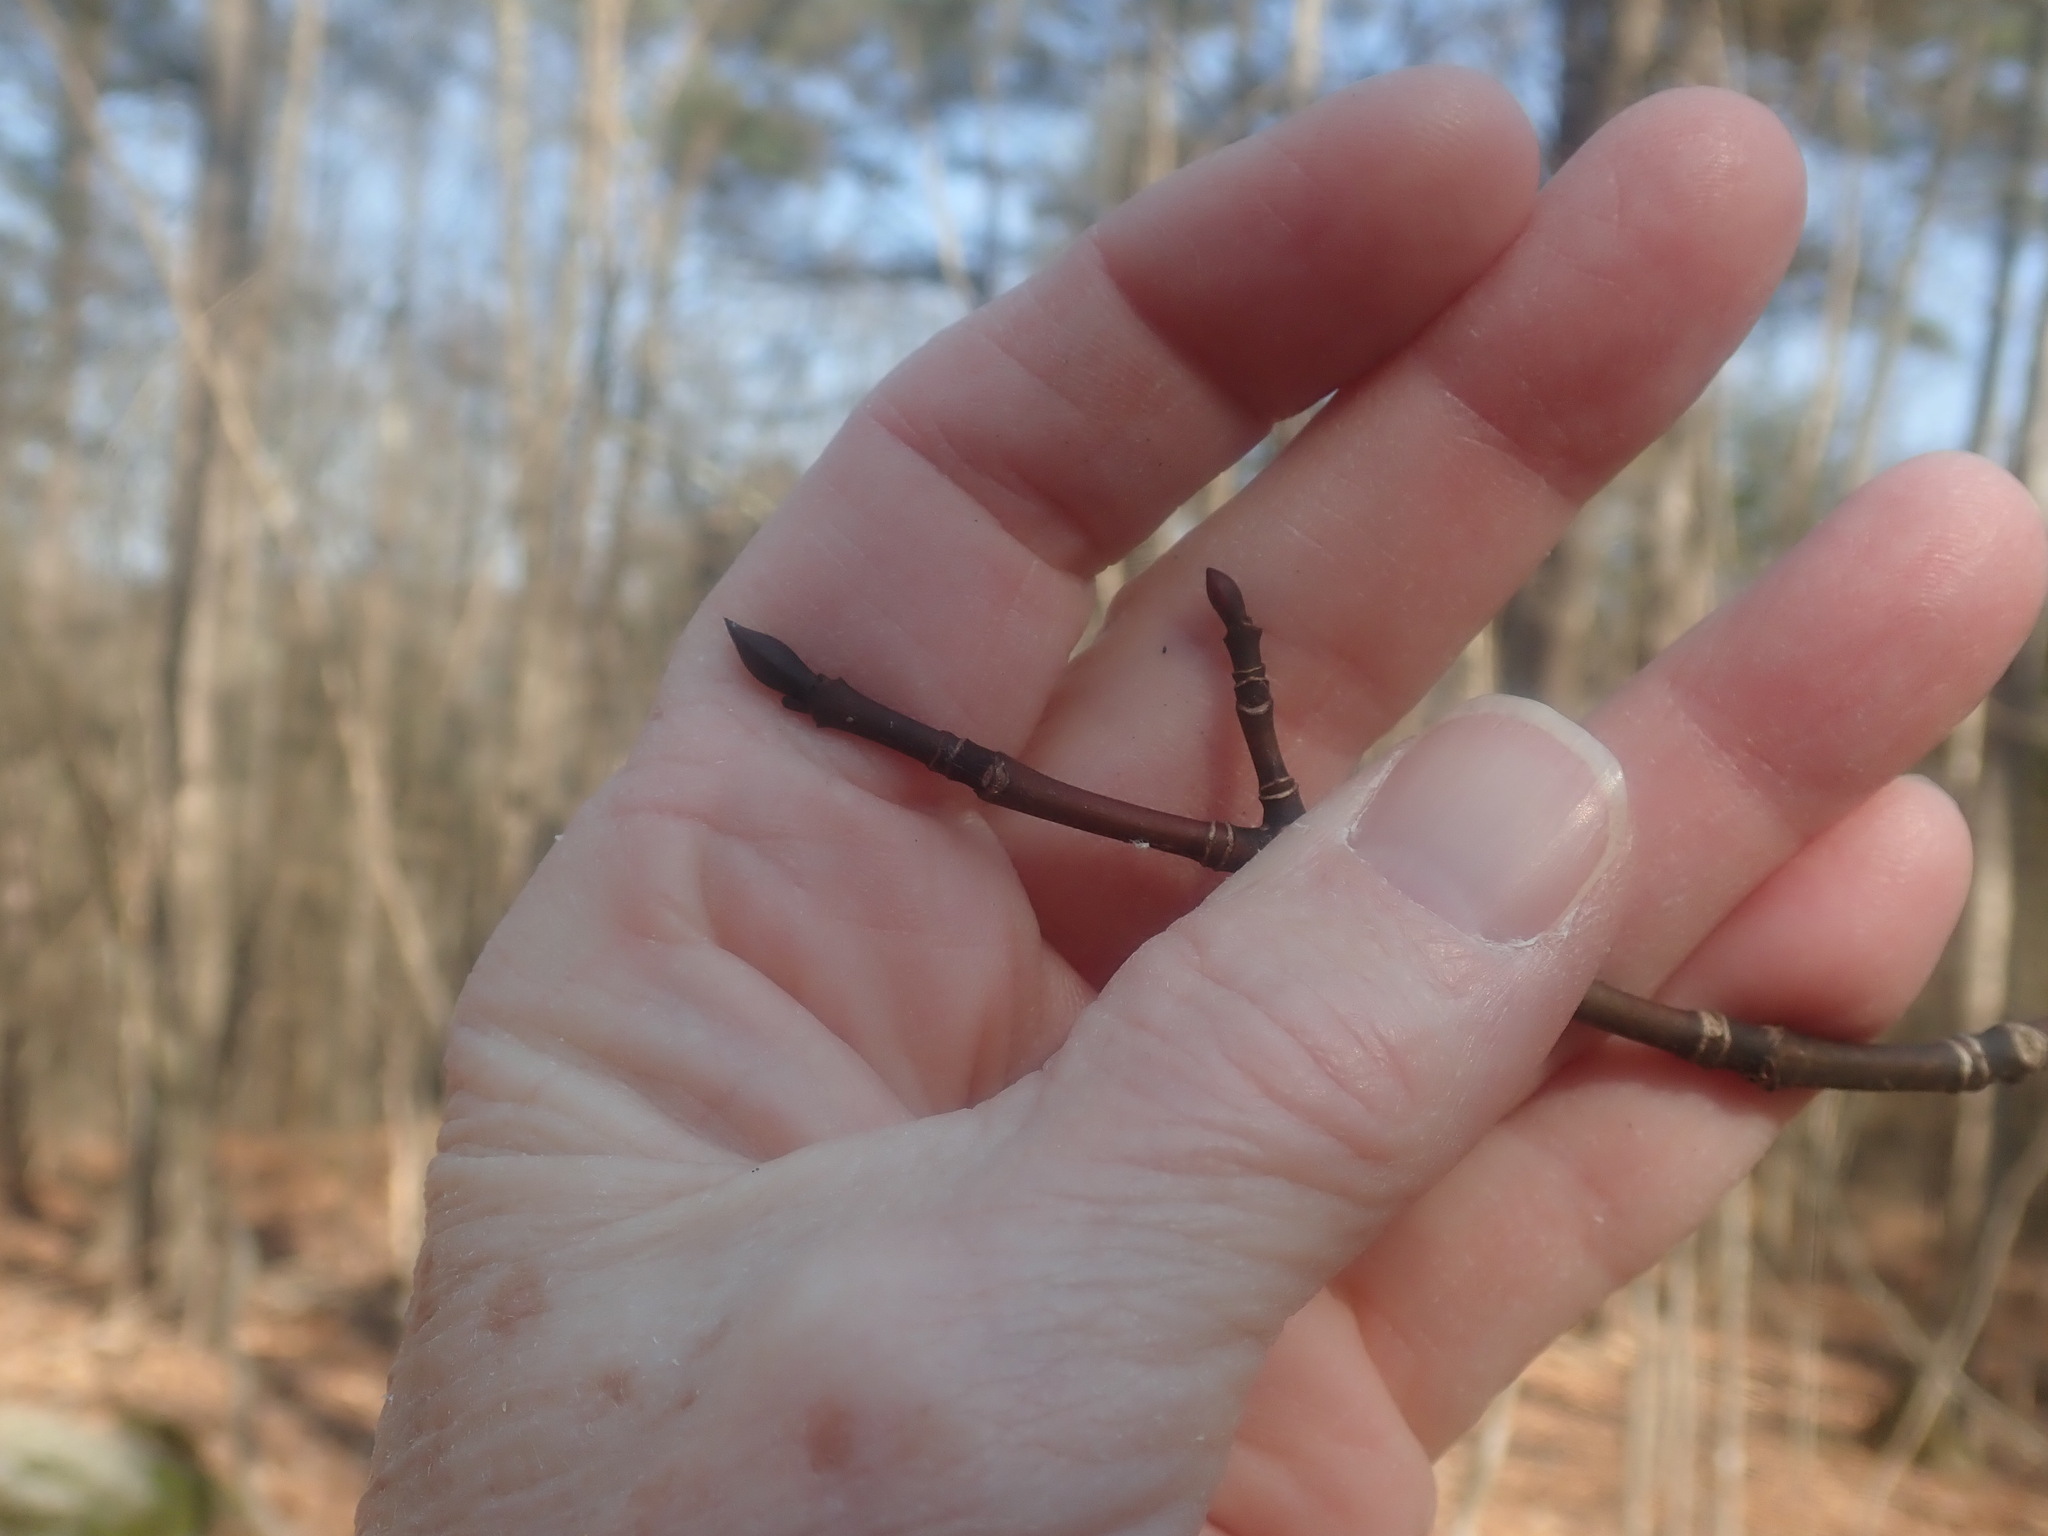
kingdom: Plantae
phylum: Tracheophyta
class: Magnoliopsida
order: Sapindales
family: Sapindaceae
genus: Acer
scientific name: Acer pensylvanicum
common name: Moosewood
